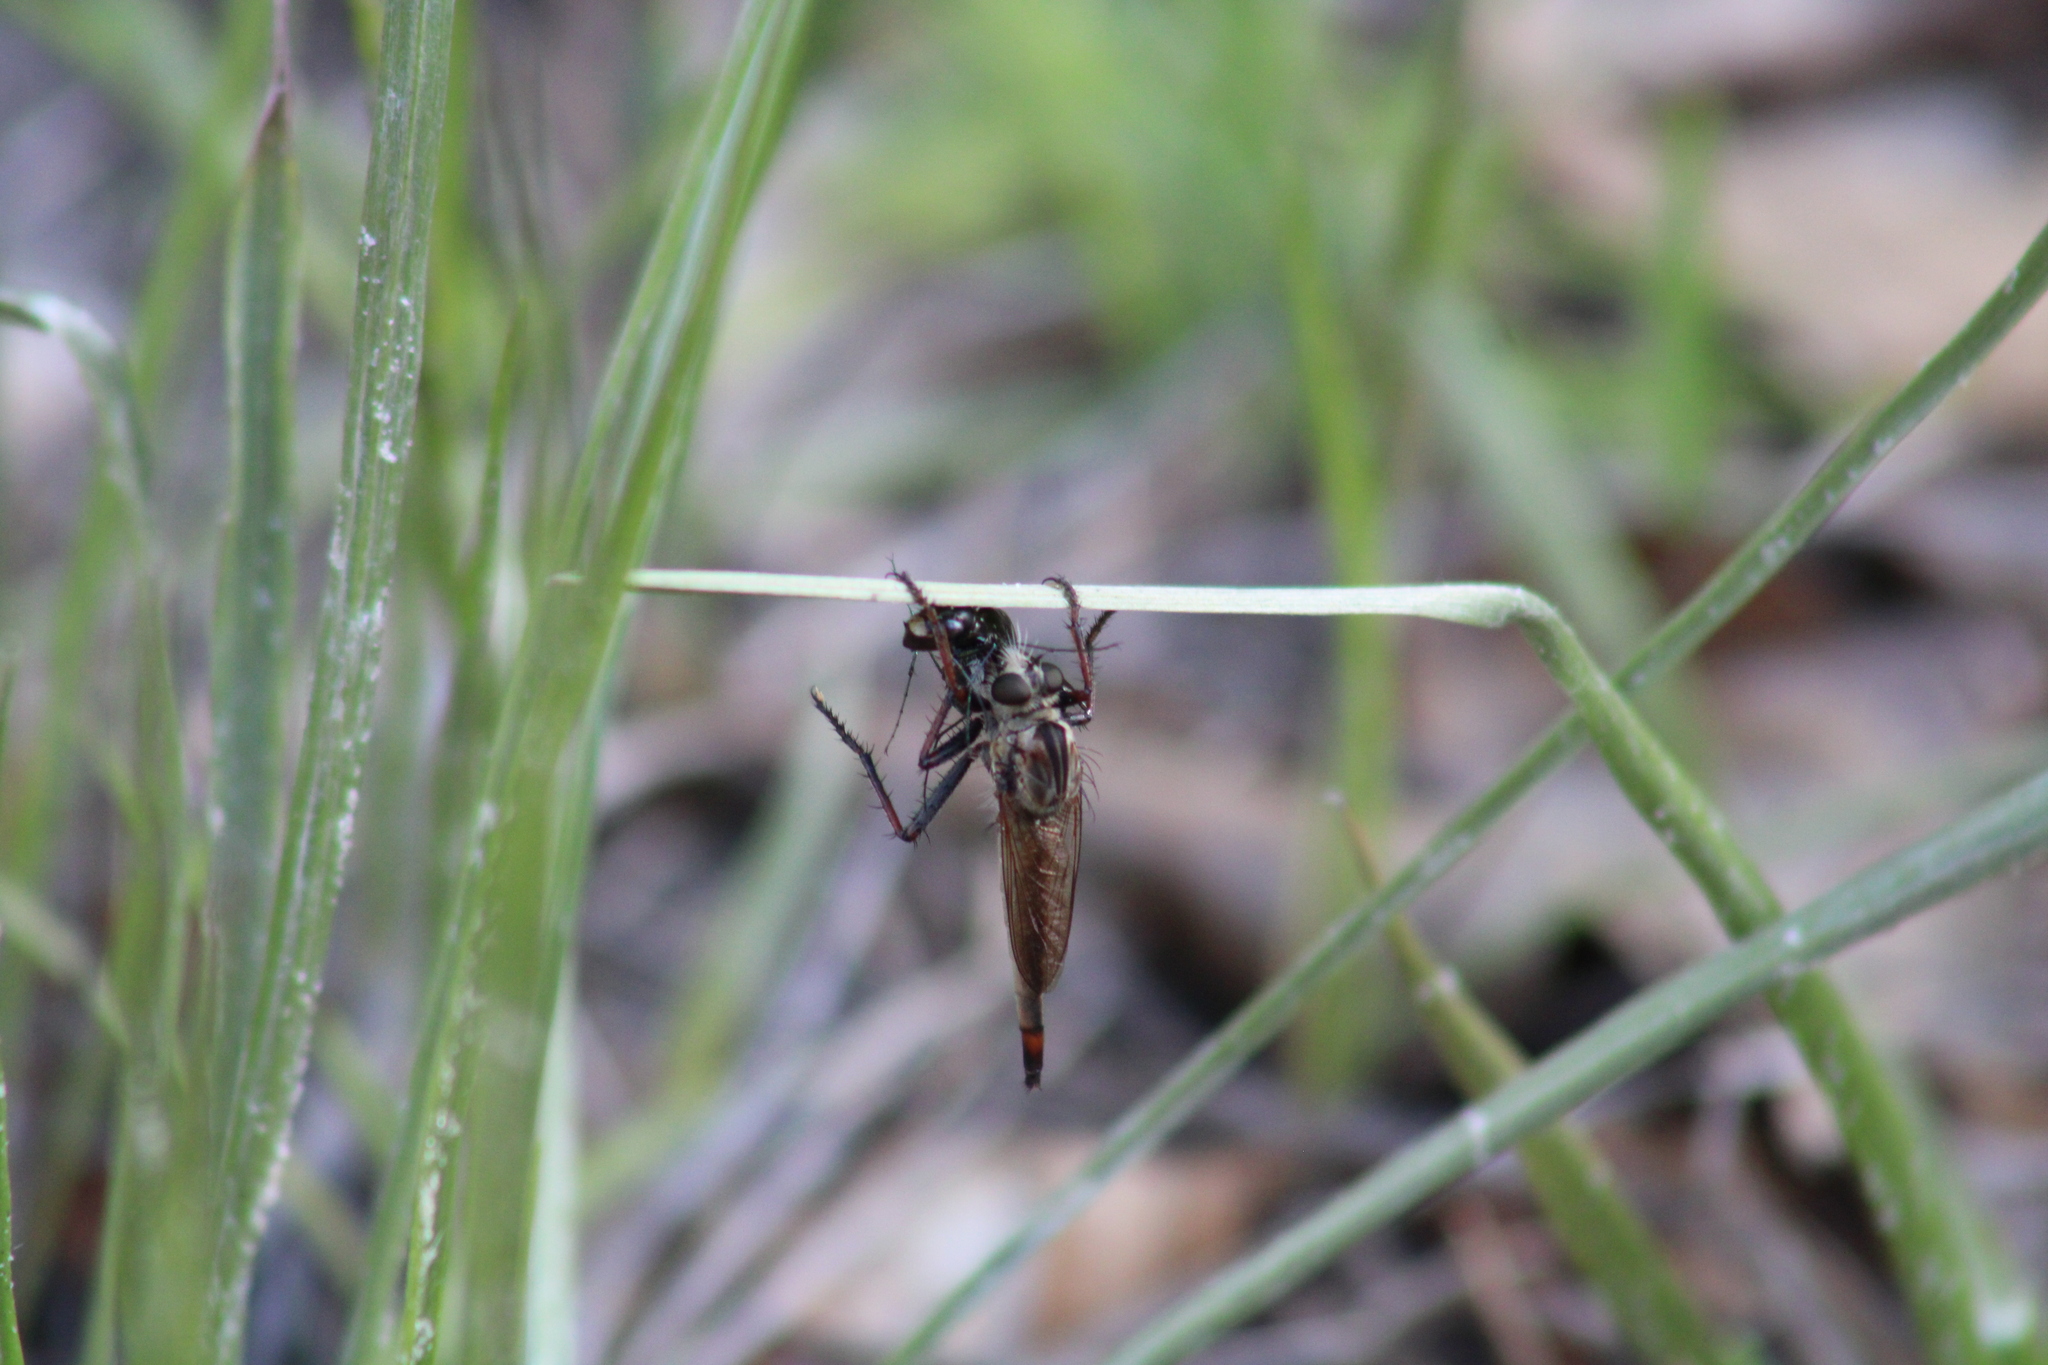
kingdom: Animalia
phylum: Arthropoda
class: Insecta
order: Diptera
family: Asilidae
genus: Proctacanthus
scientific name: Proctacanthus brevipennis
